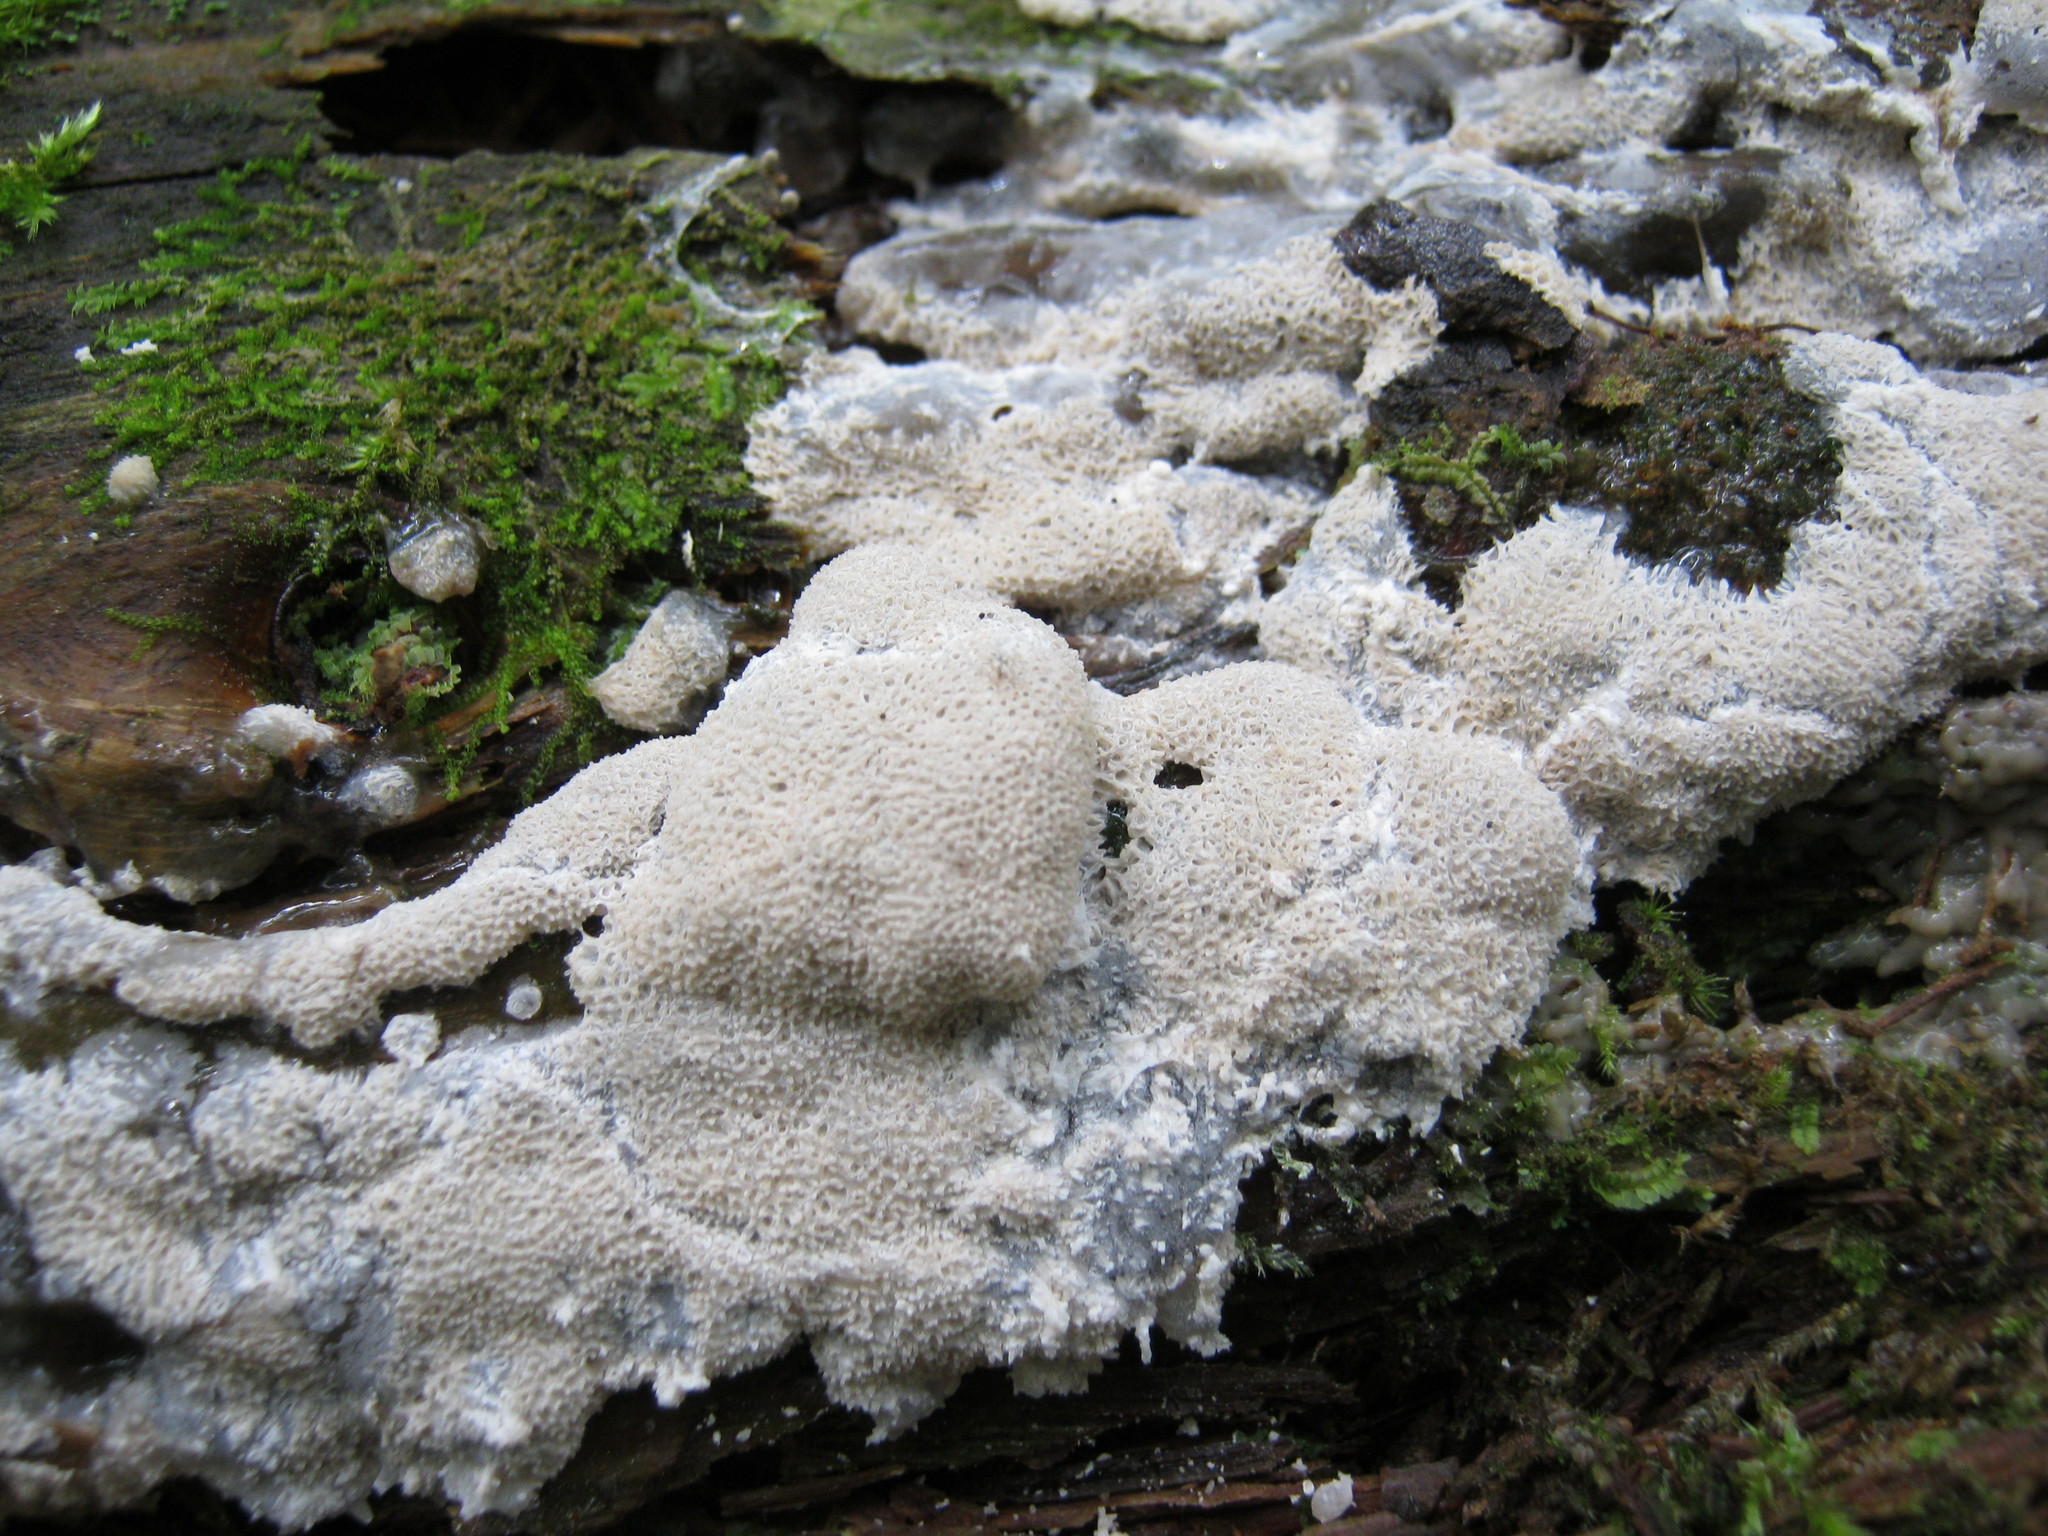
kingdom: Protozoa
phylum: Mycetozoa
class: Protosteliomycetes
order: Ceratiomyxales
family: Ceratiomyxaceae
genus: Ceratiomyxa
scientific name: Ceratiomyxa fruticulosa
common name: Honeycomb coral slime mold
